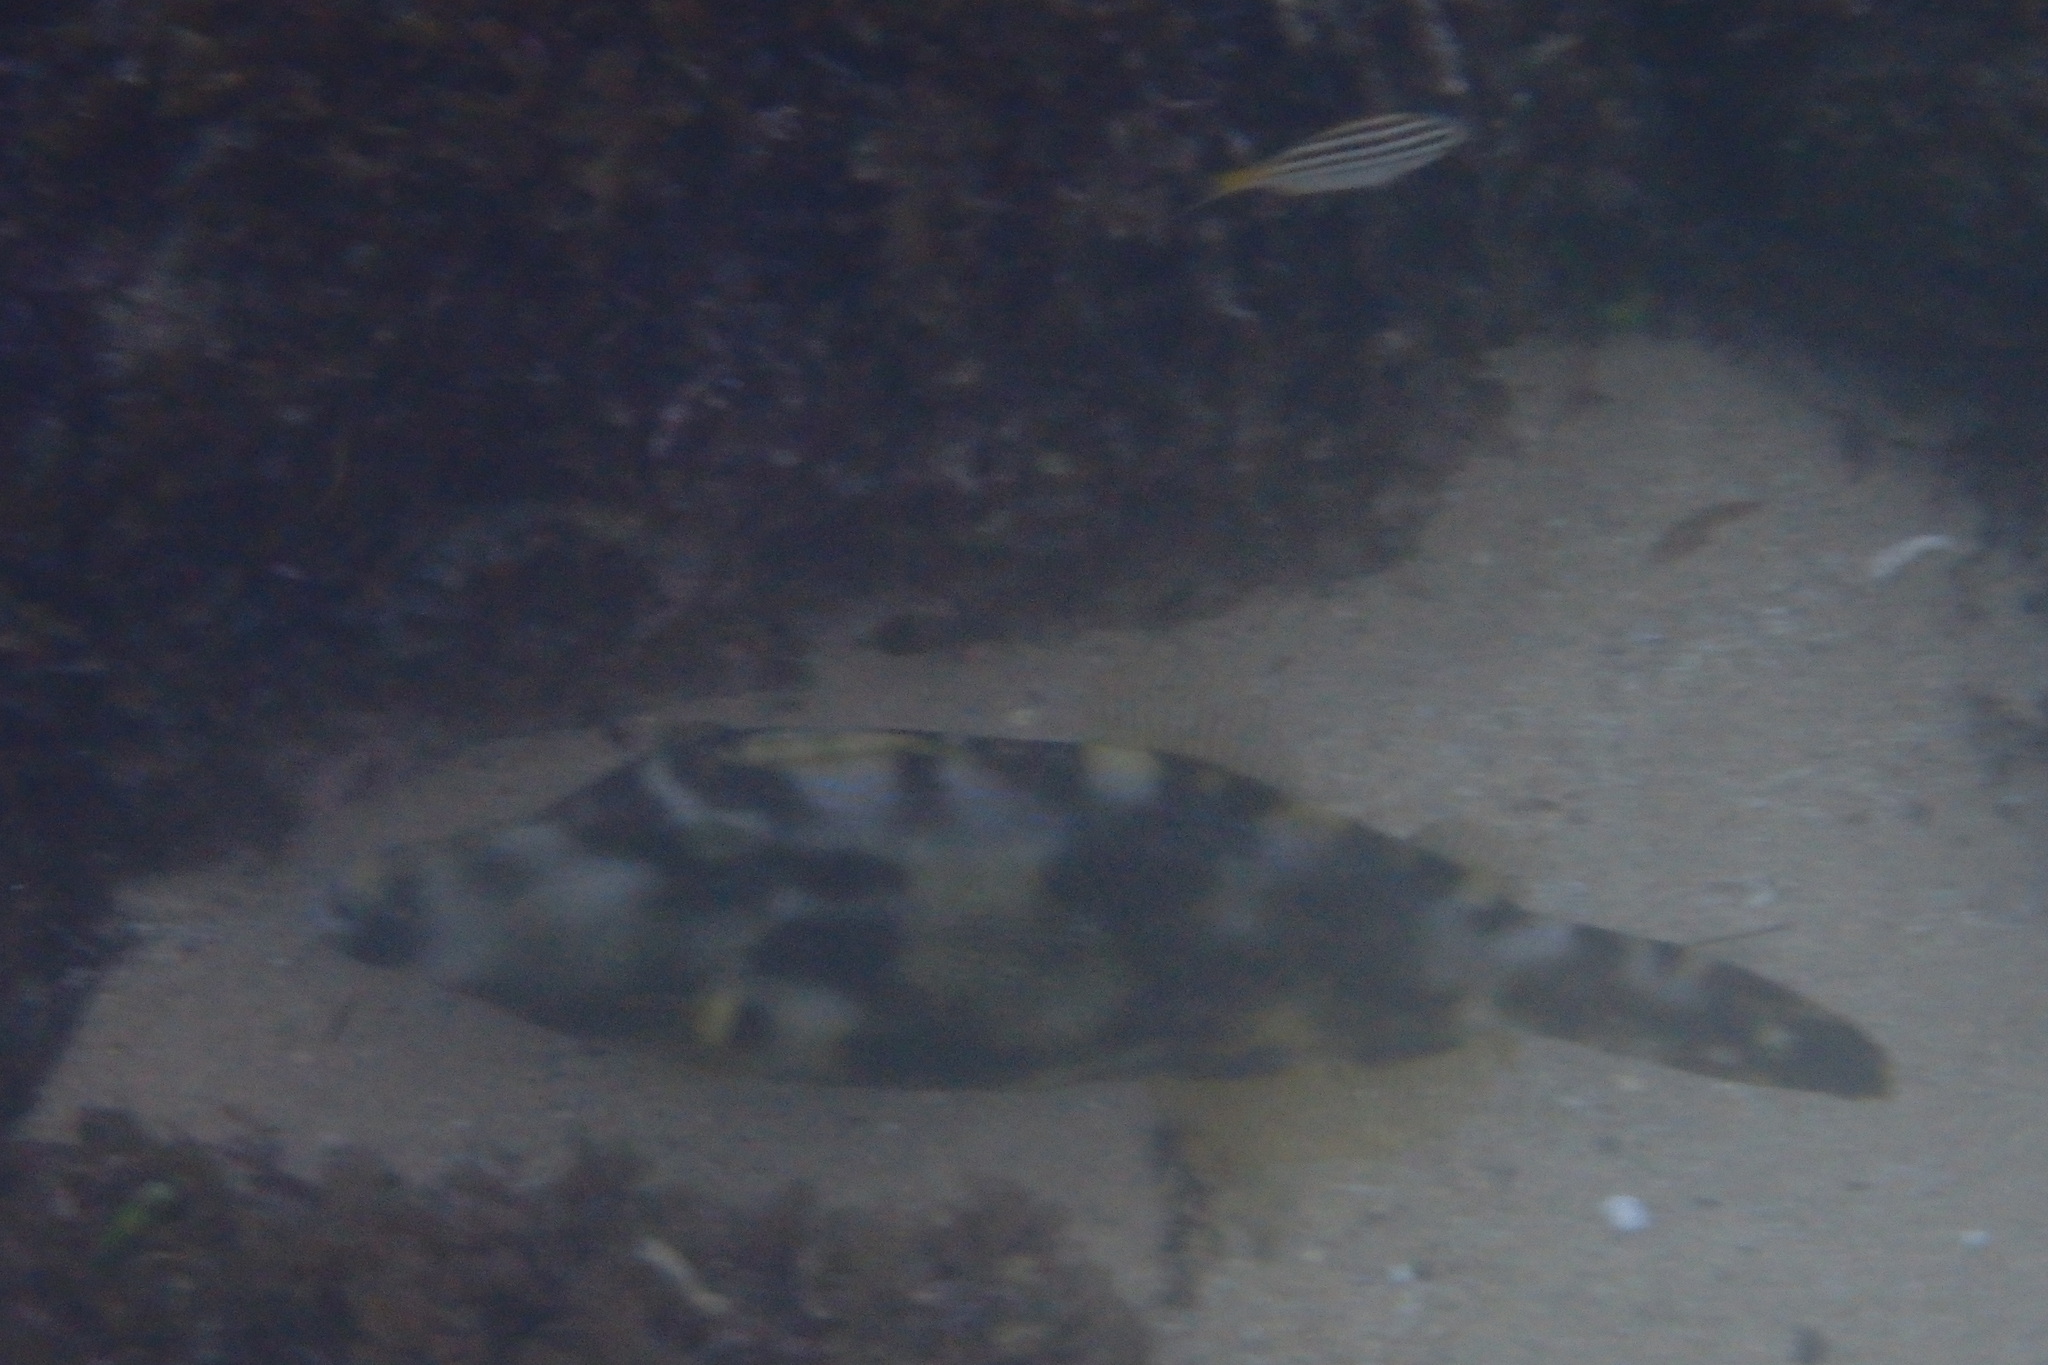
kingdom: Animalia
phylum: Chordata
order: Tetraodontiformes
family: Monacanthidae
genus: Meuschenia
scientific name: Meuschenia trachylepis
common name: Yellowfin leatherjacket
